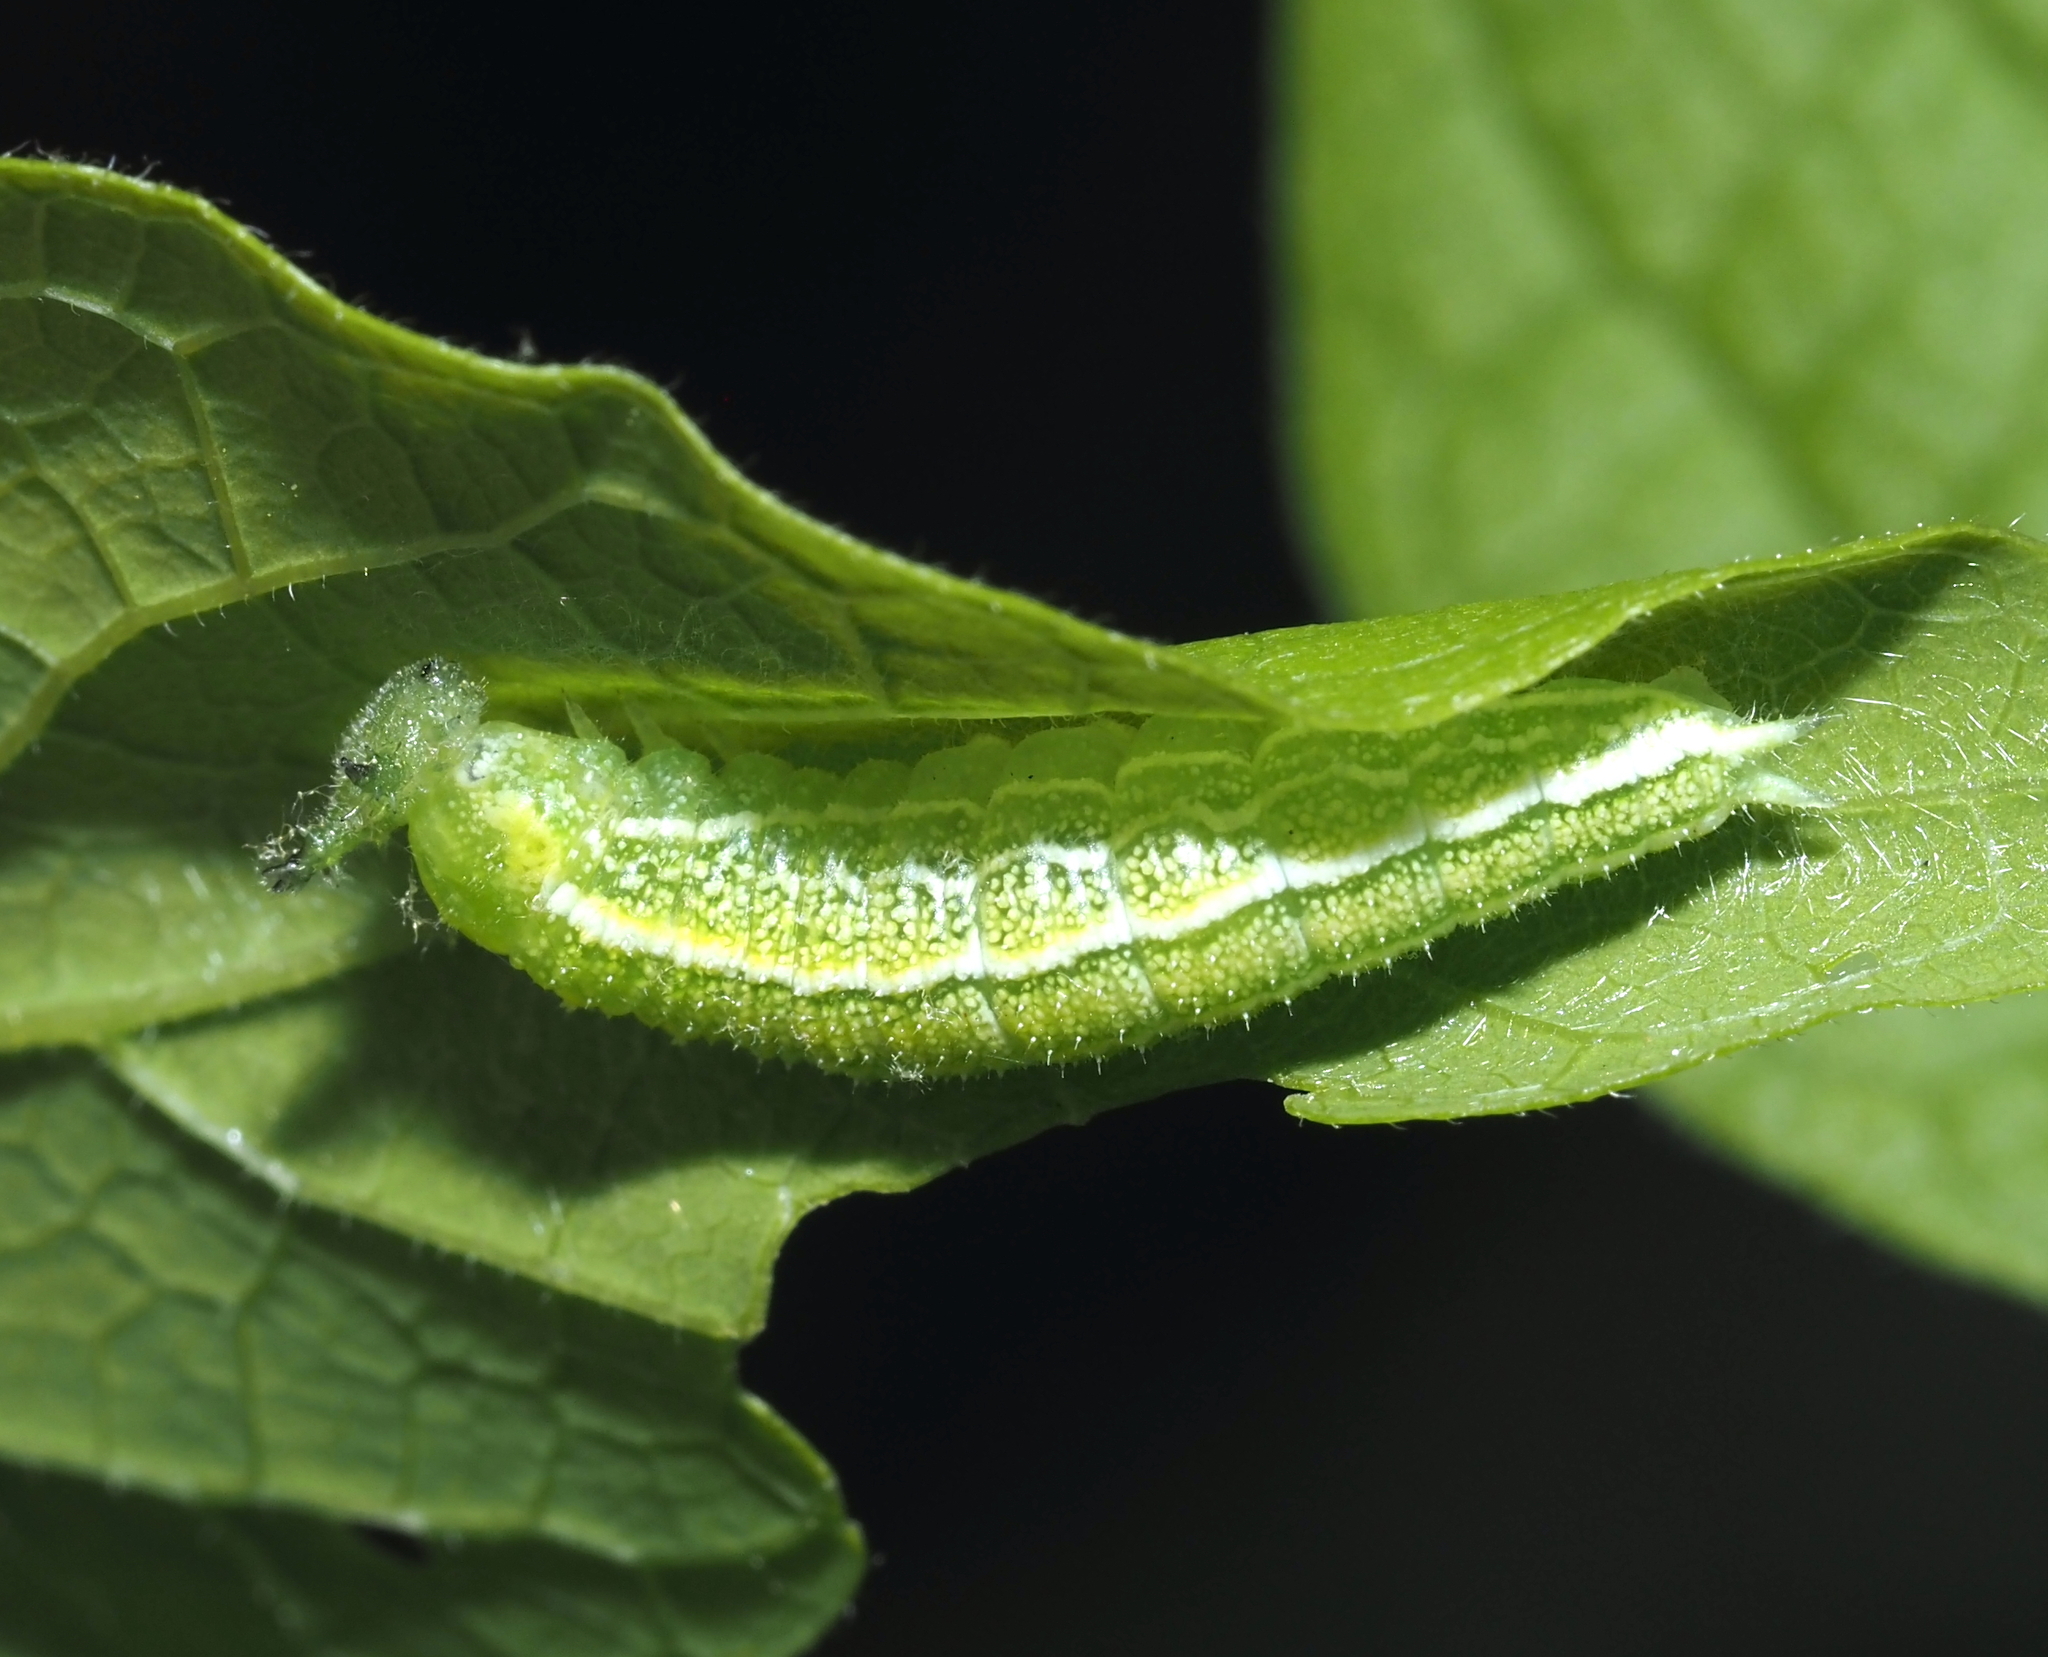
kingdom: Animalia
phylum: Arthropoda
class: Insecta
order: Lepidoptera
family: Nymphalidae
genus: Asterocampa
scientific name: Asterocampa celtis
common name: Hackberry emperor
